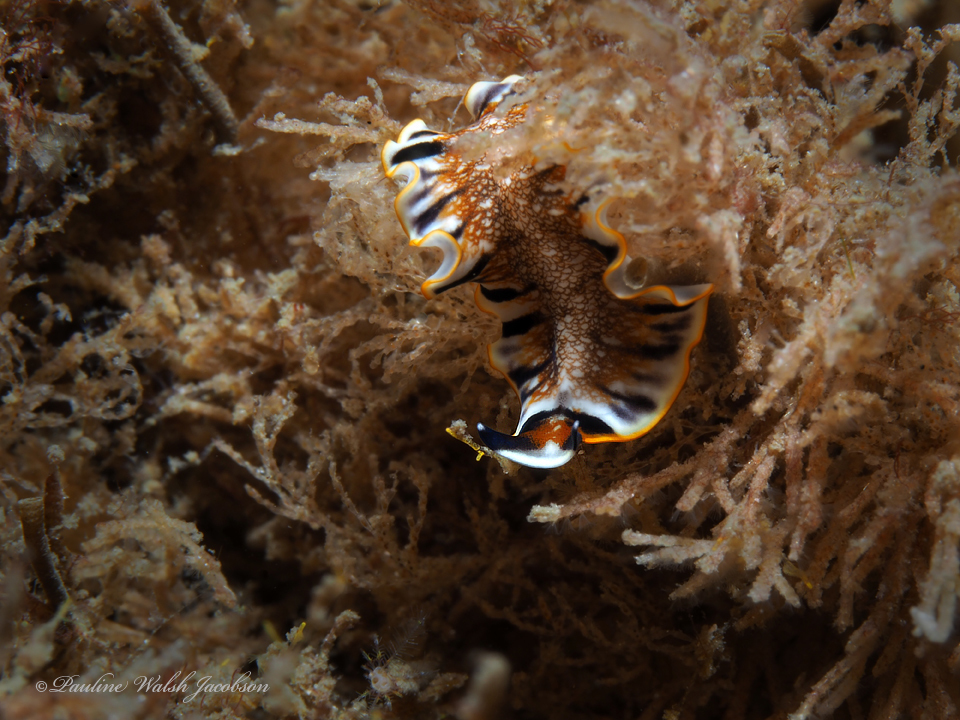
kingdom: Animalia
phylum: Platyhelminthes
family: Euryleptidae
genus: Prostheceraeus
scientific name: Prostheceraeus floridanus
